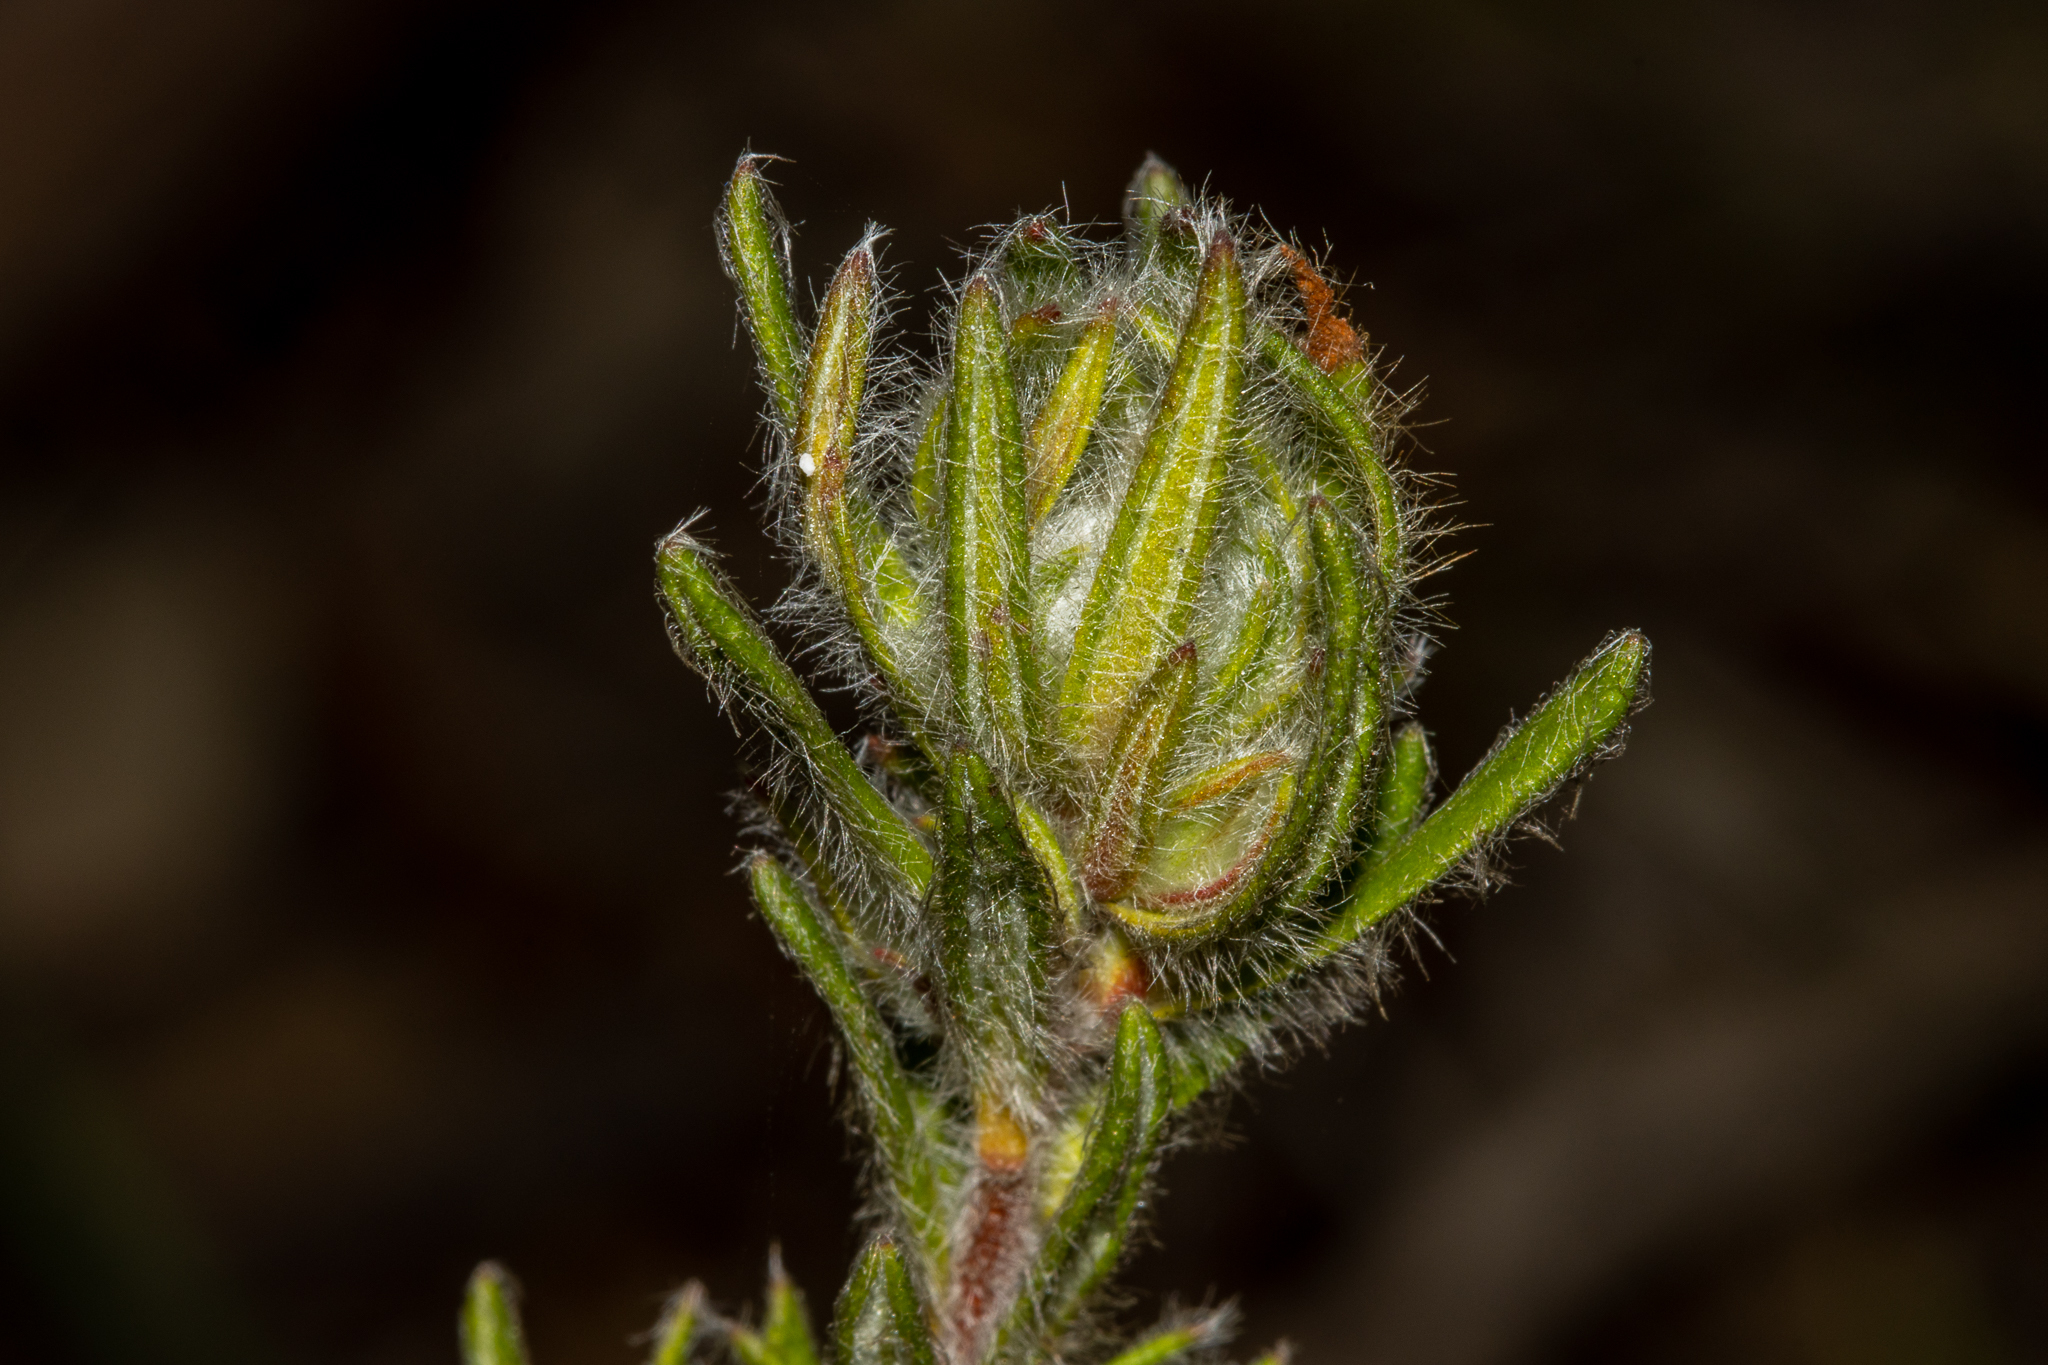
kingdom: Plantae
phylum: Tracheophyta
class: Magnoliopsida
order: Dilleniales
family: Dilleniaceae
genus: Hibbertia
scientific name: Hibbertia villifera
